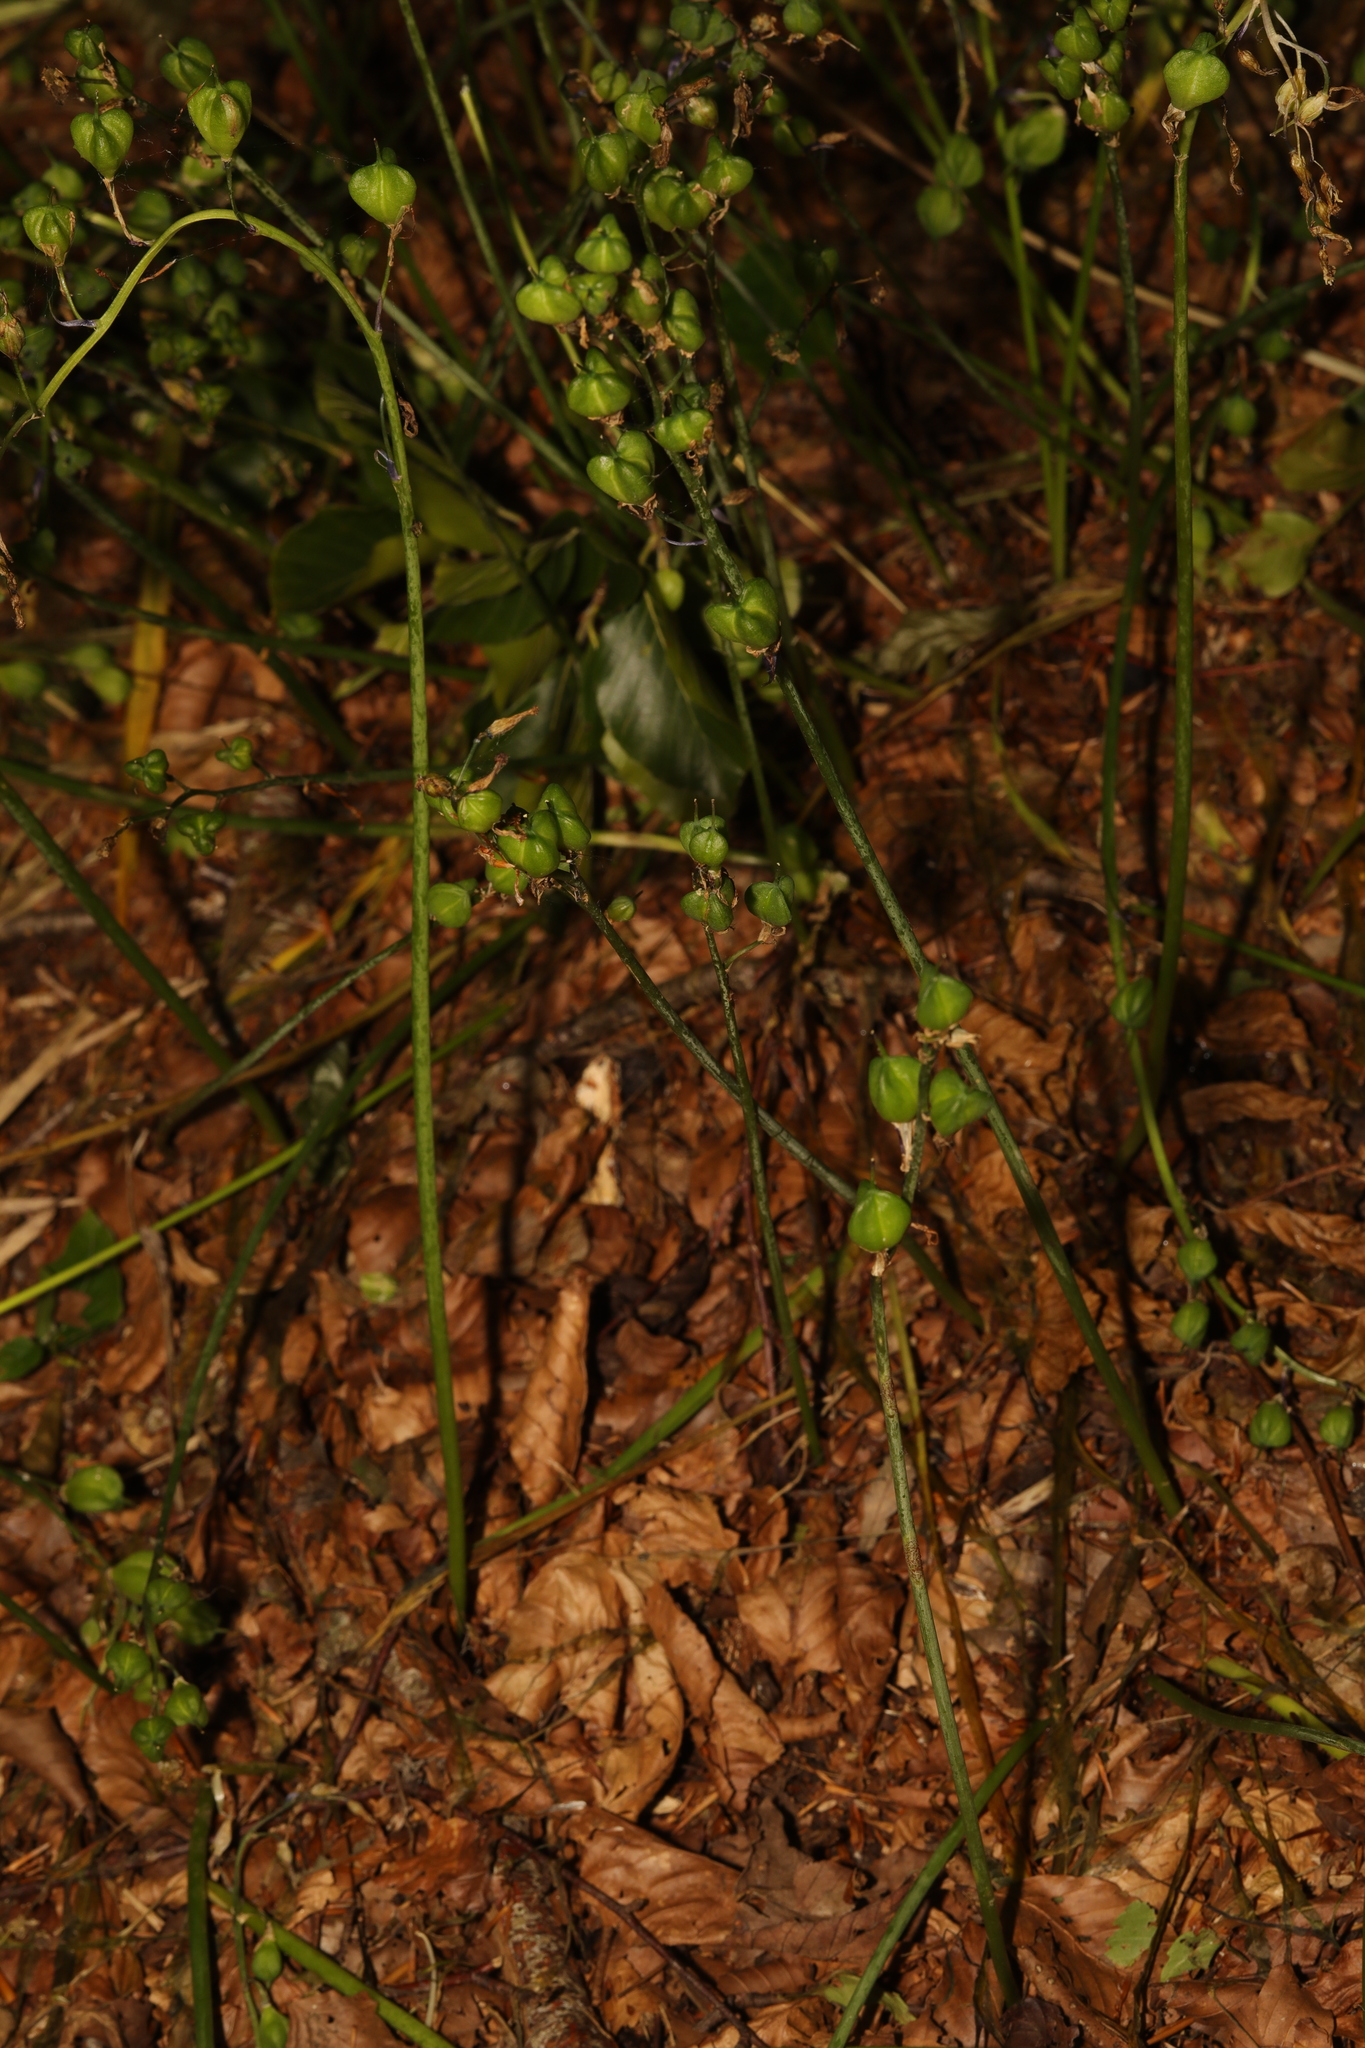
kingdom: Plantae
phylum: Tracheophyta
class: Liliopsida
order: Asparagales
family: Asparagaceae
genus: Hyacinthoides
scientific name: Hyacinthoides non-scripta
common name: Bluebell
